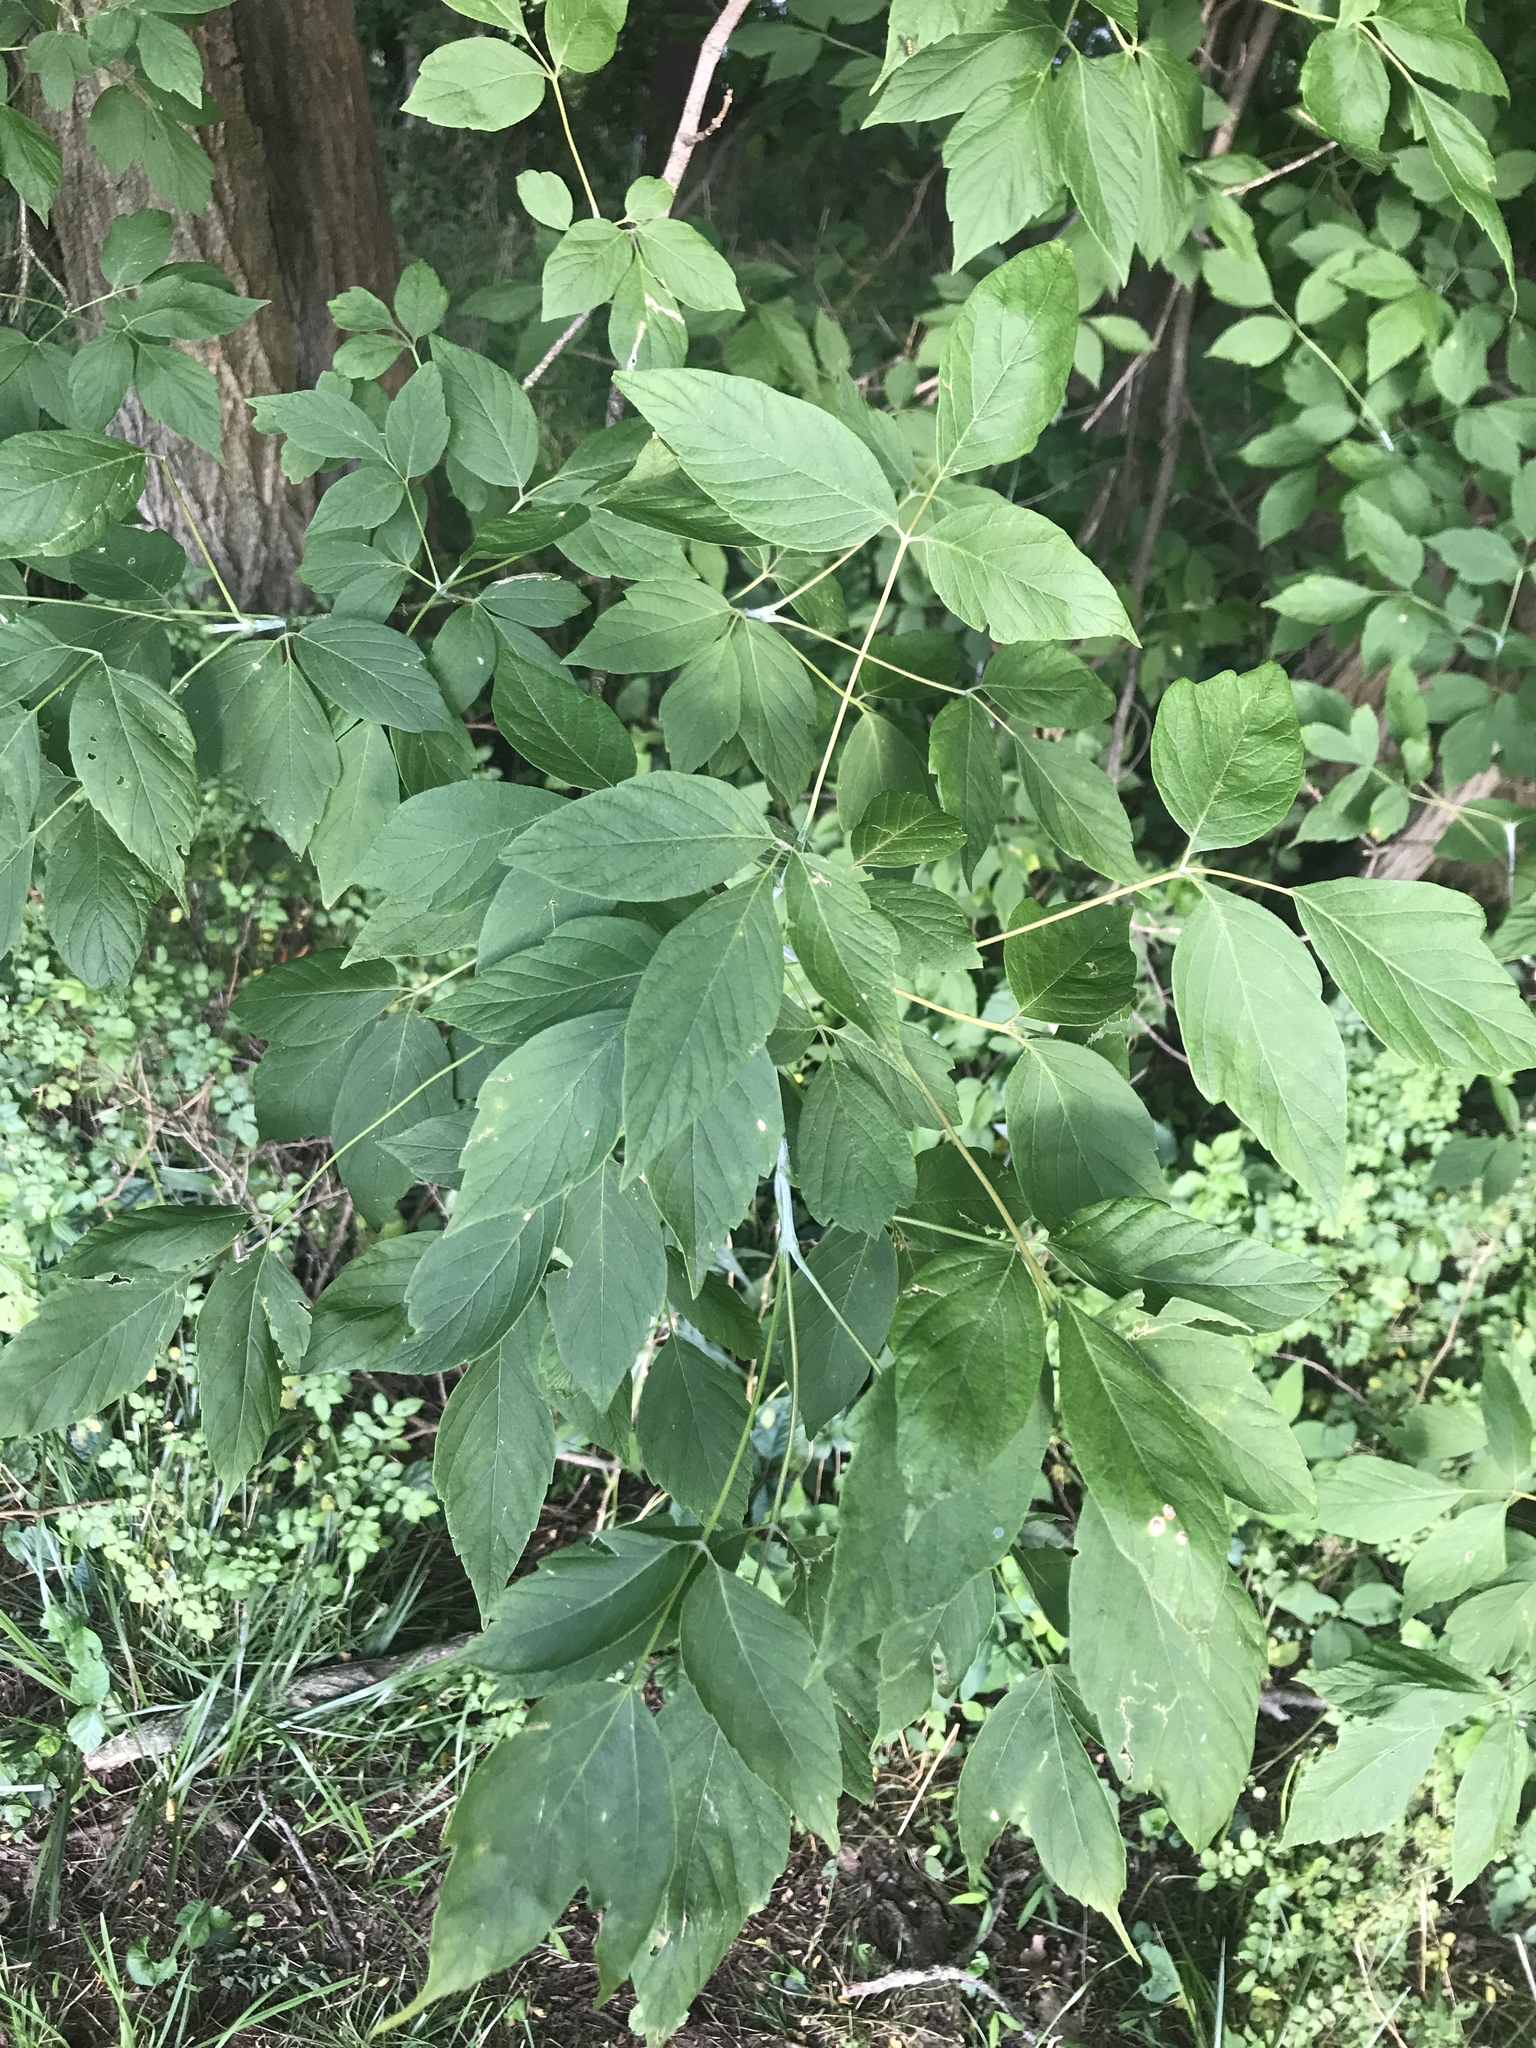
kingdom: Plantae
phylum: Tracheophyta
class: Magnoliopsida
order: Sapindales
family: Sapindaceae
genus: Acer
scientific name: Acer negundo
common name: Ashleaf maple
